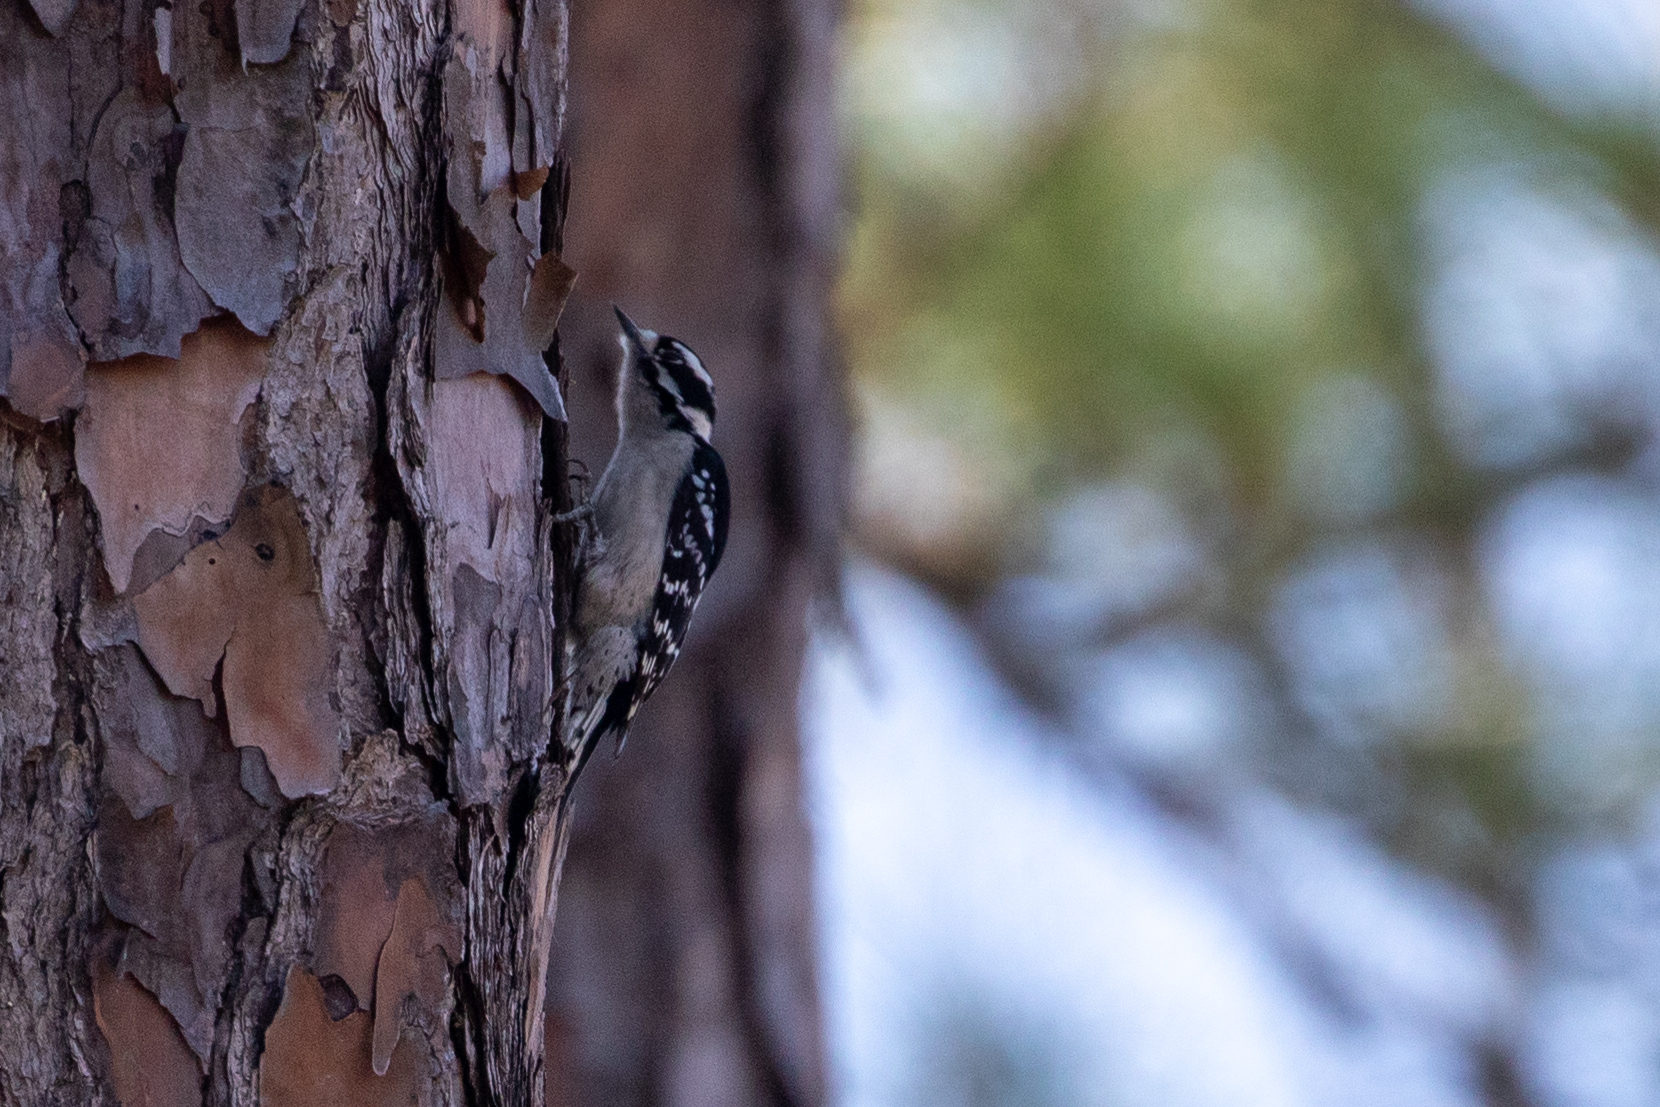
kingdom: Animalia
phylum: Chordata
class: Aves
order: Piciformes
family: Picidae
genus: Dryobates
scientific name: Dryobates pubescens
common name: Downy woodpecker
